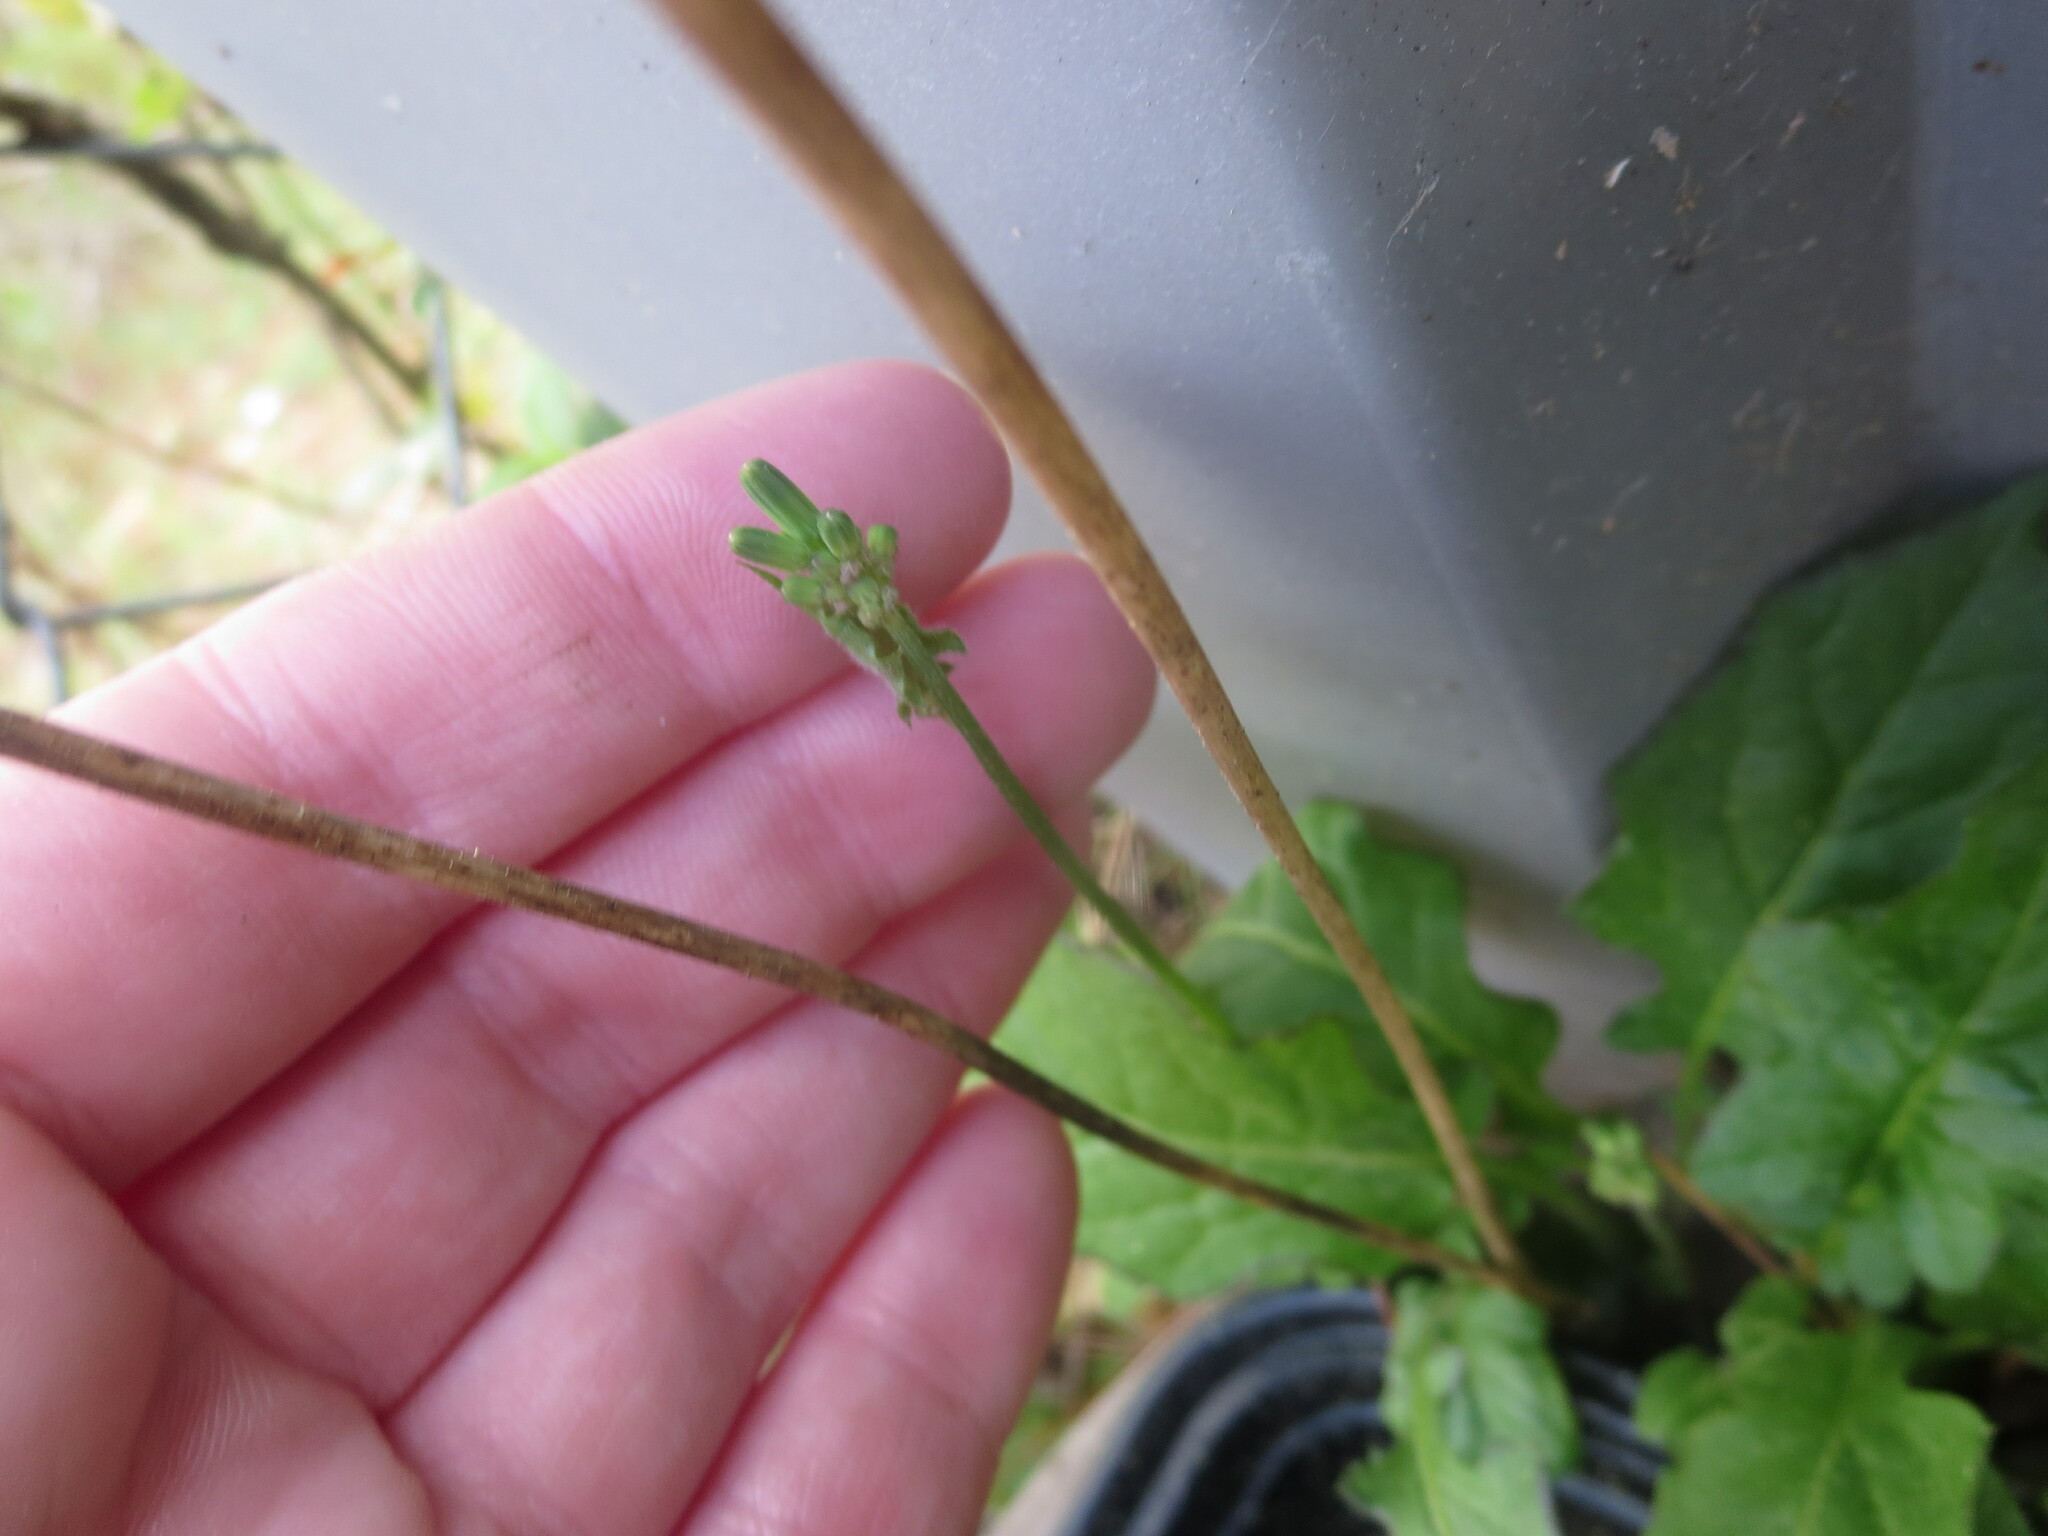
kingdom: Plantae
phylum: Tracheophyta
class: Magnoliopsida
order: Asterales
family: Asteraceae
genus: Youngia
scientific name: Youngia japonica
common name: Oriental false hawksbeard
